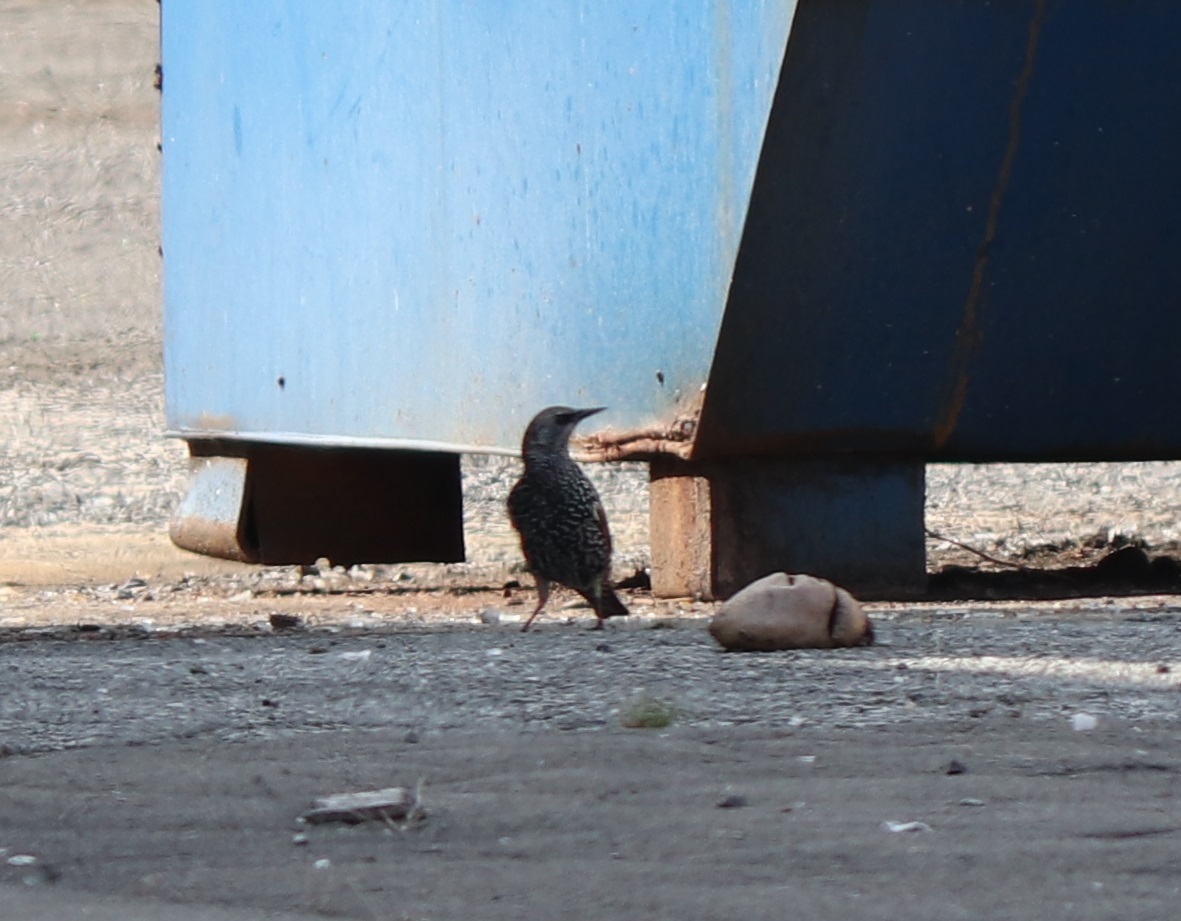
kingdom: Animalia
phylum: Chordata
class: Aves
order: Passeriformes
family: Sturnidae
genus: Sturnus
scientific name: Sturnus vulgaris
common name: Common starling
